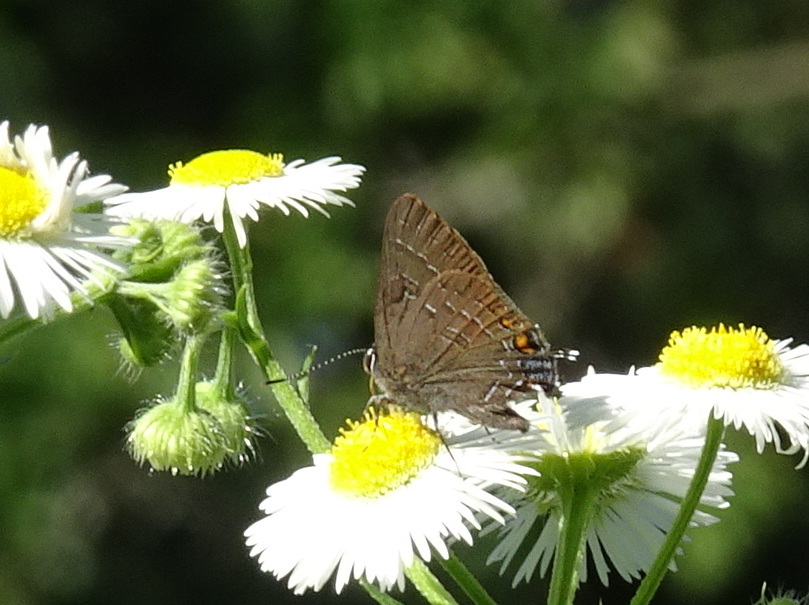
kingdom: Animalia
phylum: Arthropoda
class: Insecta
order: Lepidoptera
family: Lycaenidae
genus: Satyrium
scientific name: Satyrium calanus
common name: Banded hairstreak
